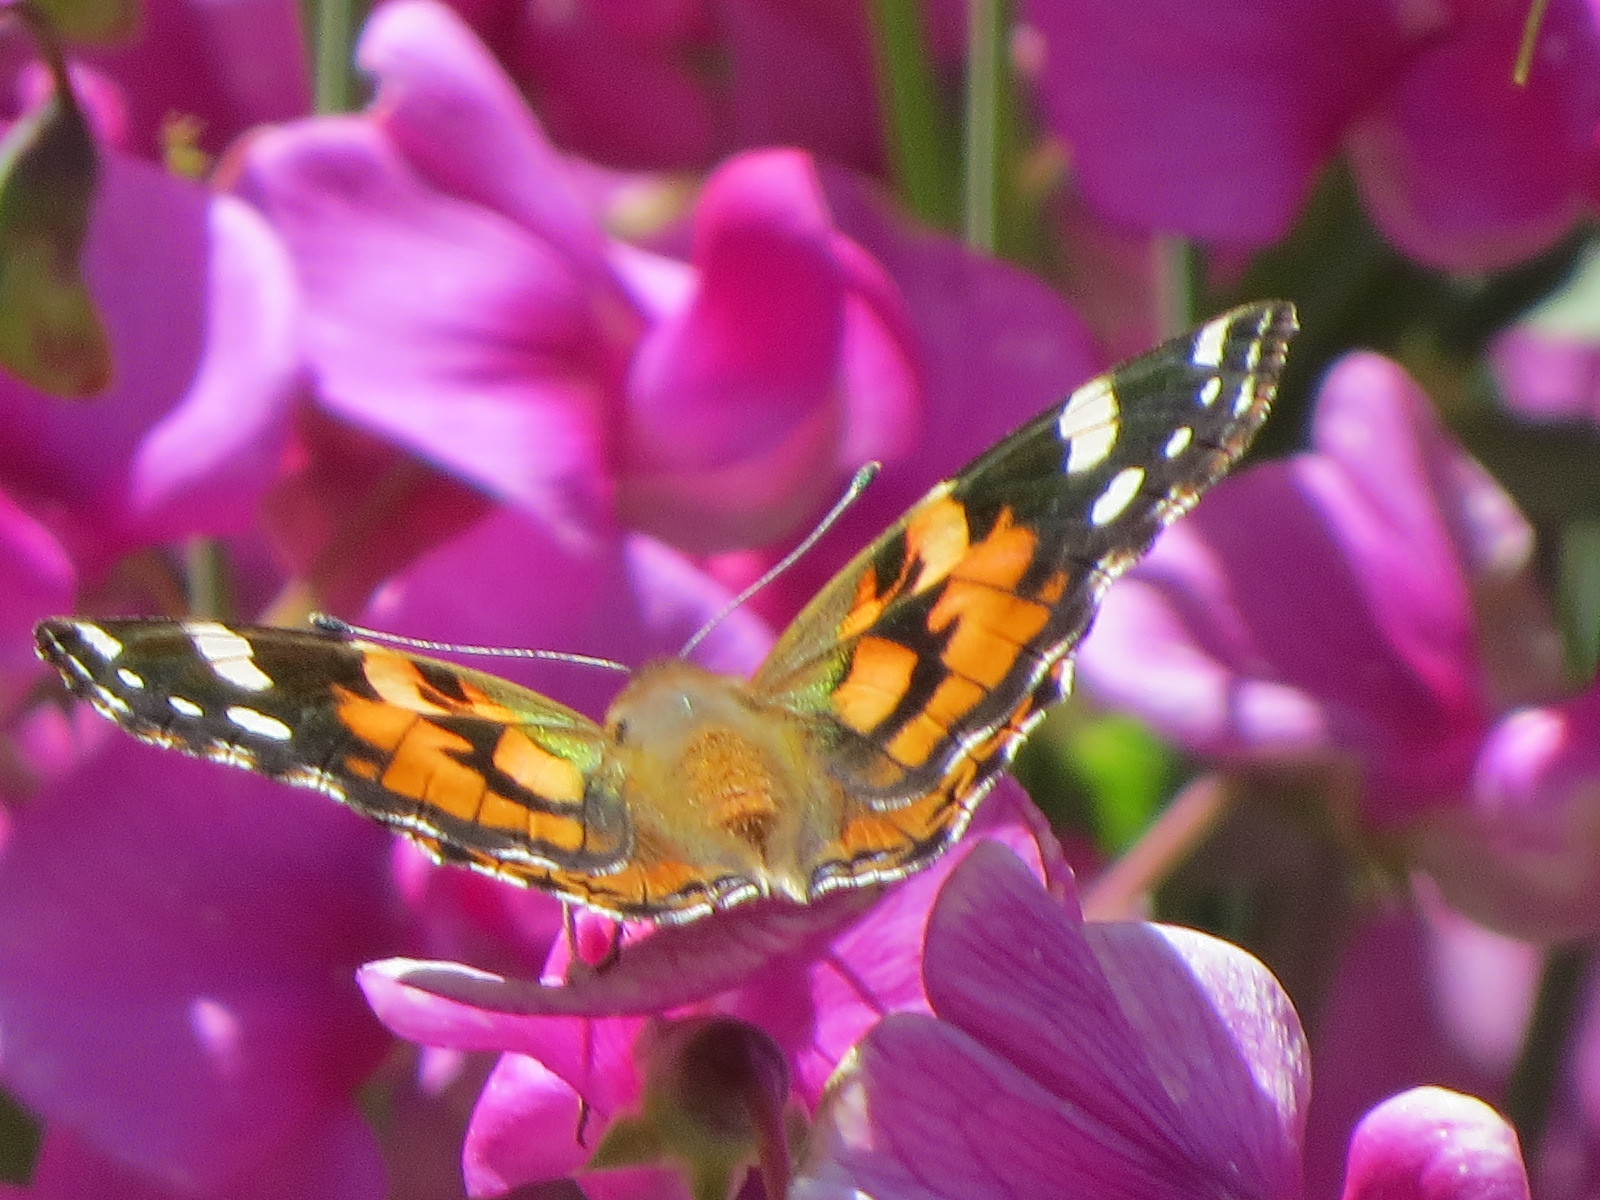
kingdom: Animalia
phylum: Arthropoda
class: Insecta
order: Lepidoptera
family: Nymphalidae
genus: Vanessa
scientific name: Vanessa cardui
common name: Painted lady
